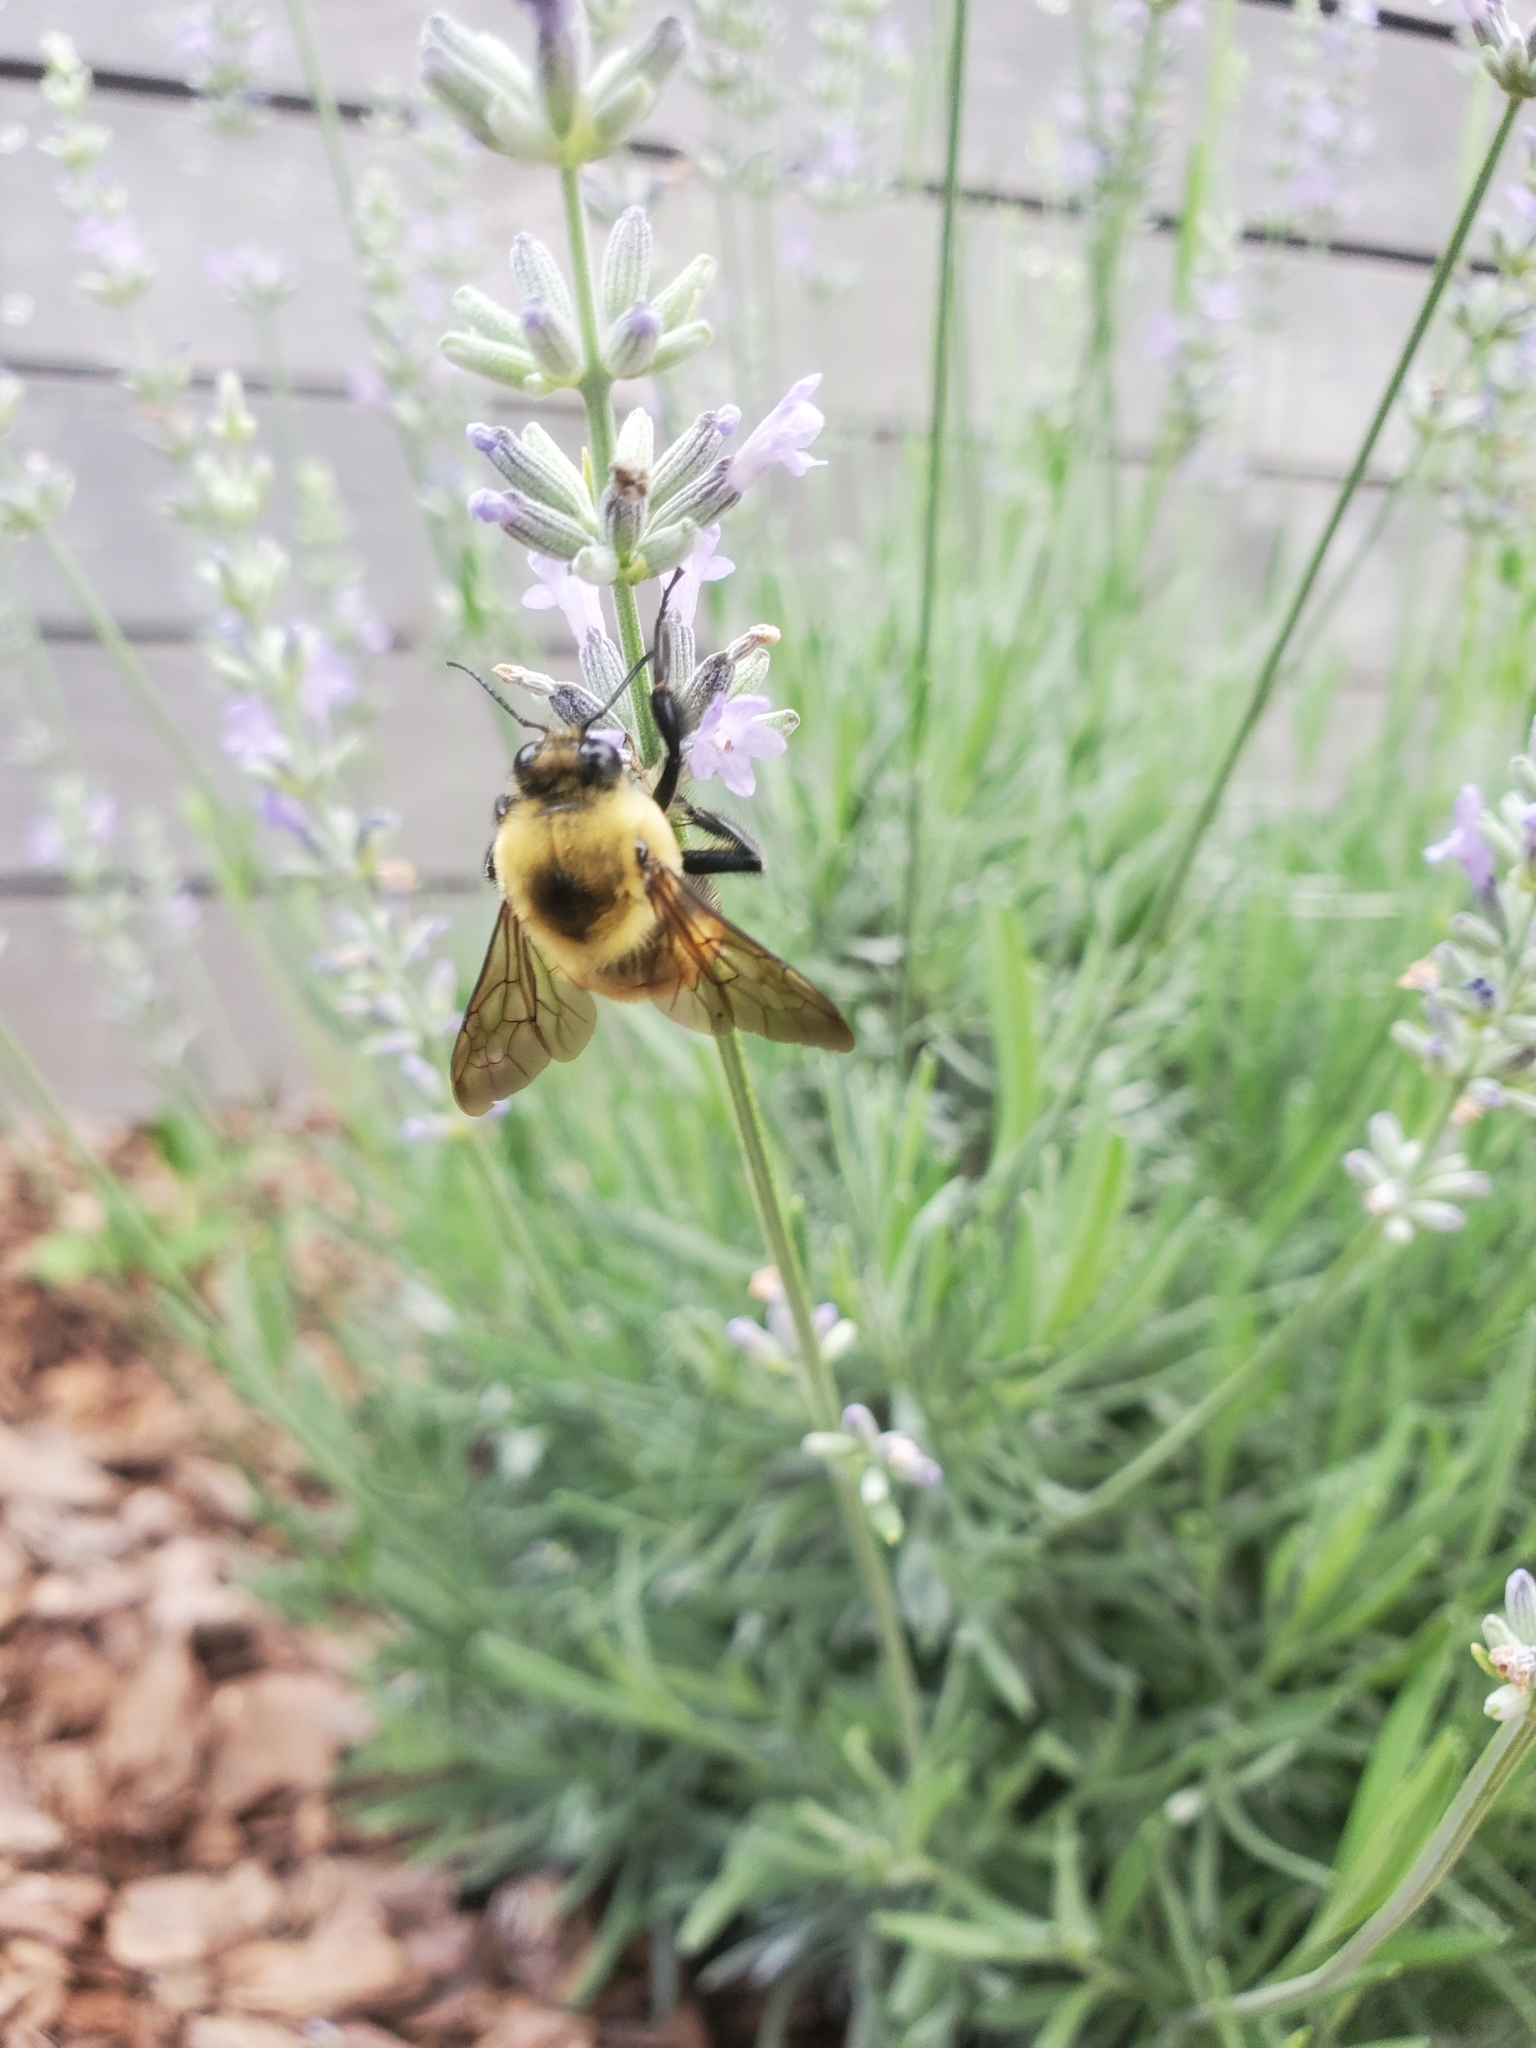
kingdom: Animalia
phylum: Arthropoda
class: Insecta
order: Hymenoptera
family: Apidae
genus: Bombus
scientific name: Bombus griseocollis
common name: Brown-belted bumble bee
